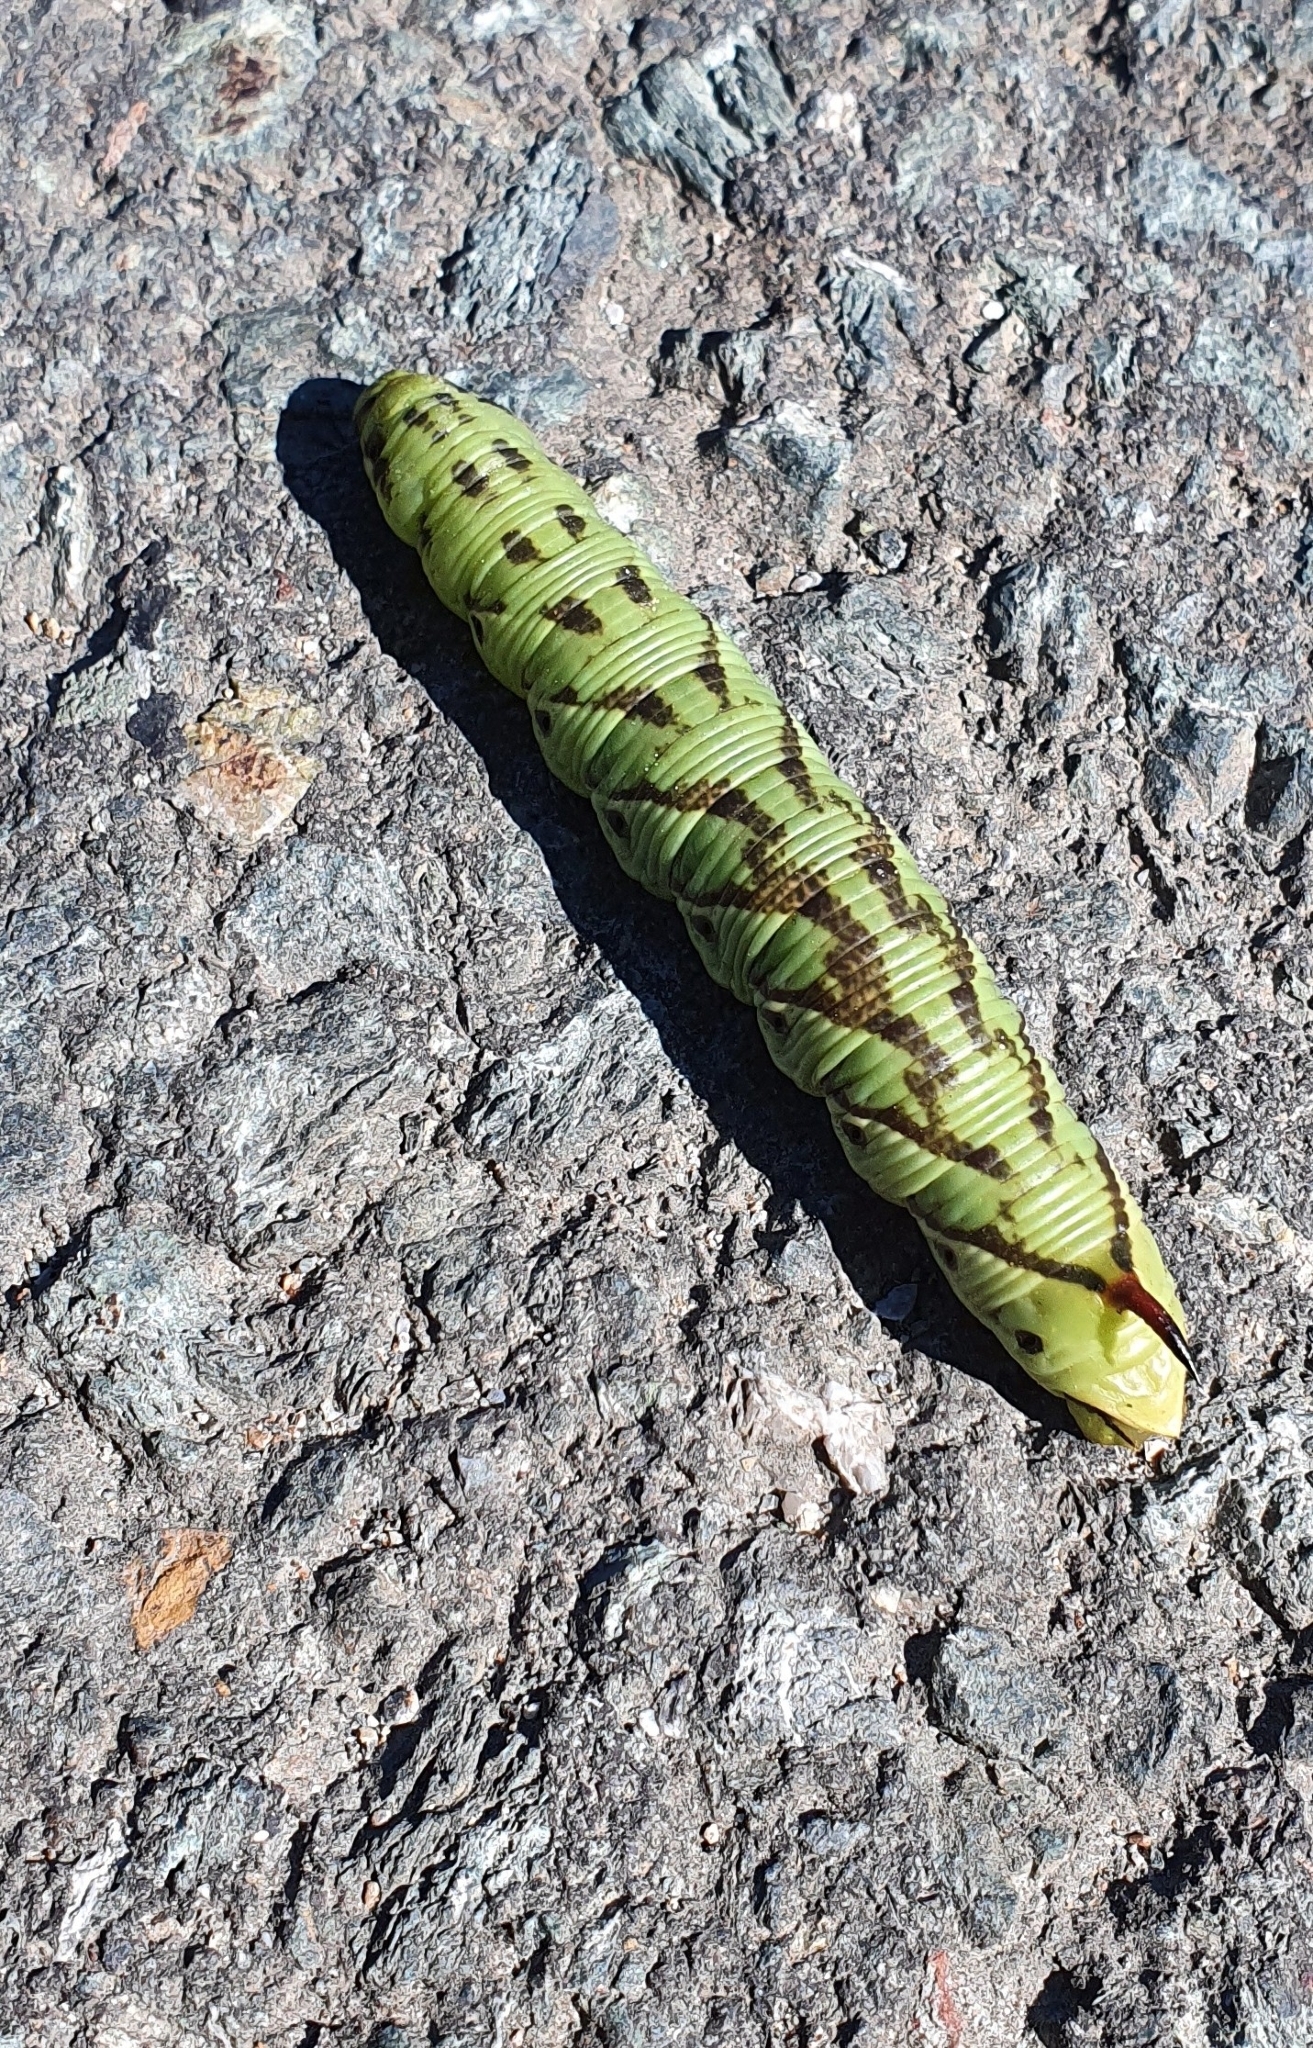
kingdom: Animalia
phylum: Arthropoda
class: Insecta
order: Lepidoptera
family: Sphingidae
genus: Agrius
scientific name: Agrius convolvuli
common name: Convolvulus hawkmoth
